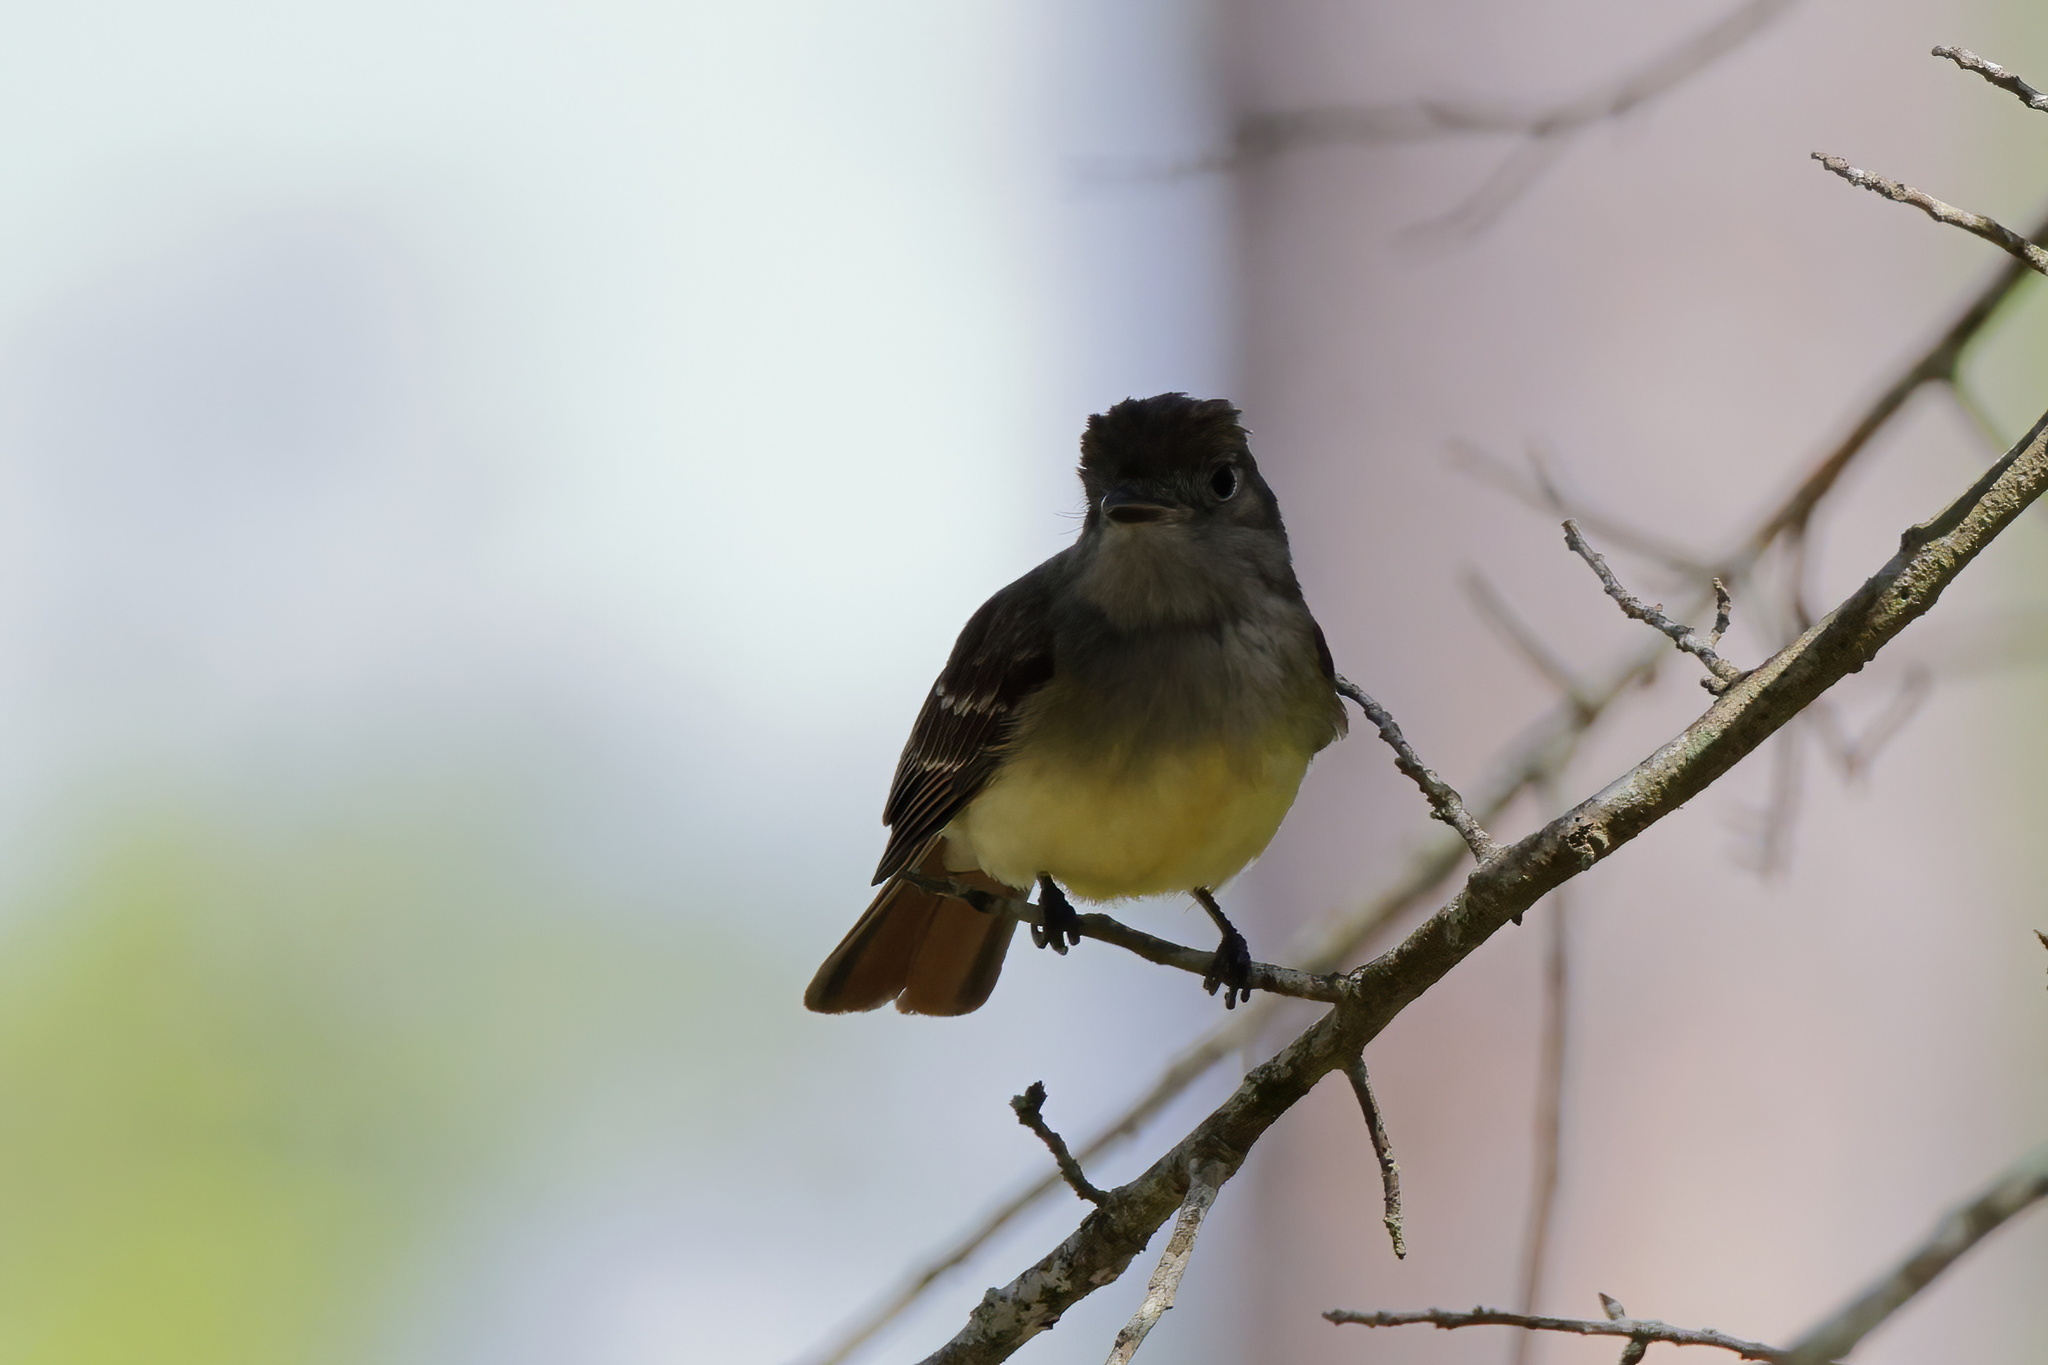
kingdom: Animalia
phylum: Chordata
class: Aves
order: Passeriformes
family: Tyrannidae
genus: Myiarchus
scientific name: Myiarchus crinitus
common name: Great crested flycatcher
